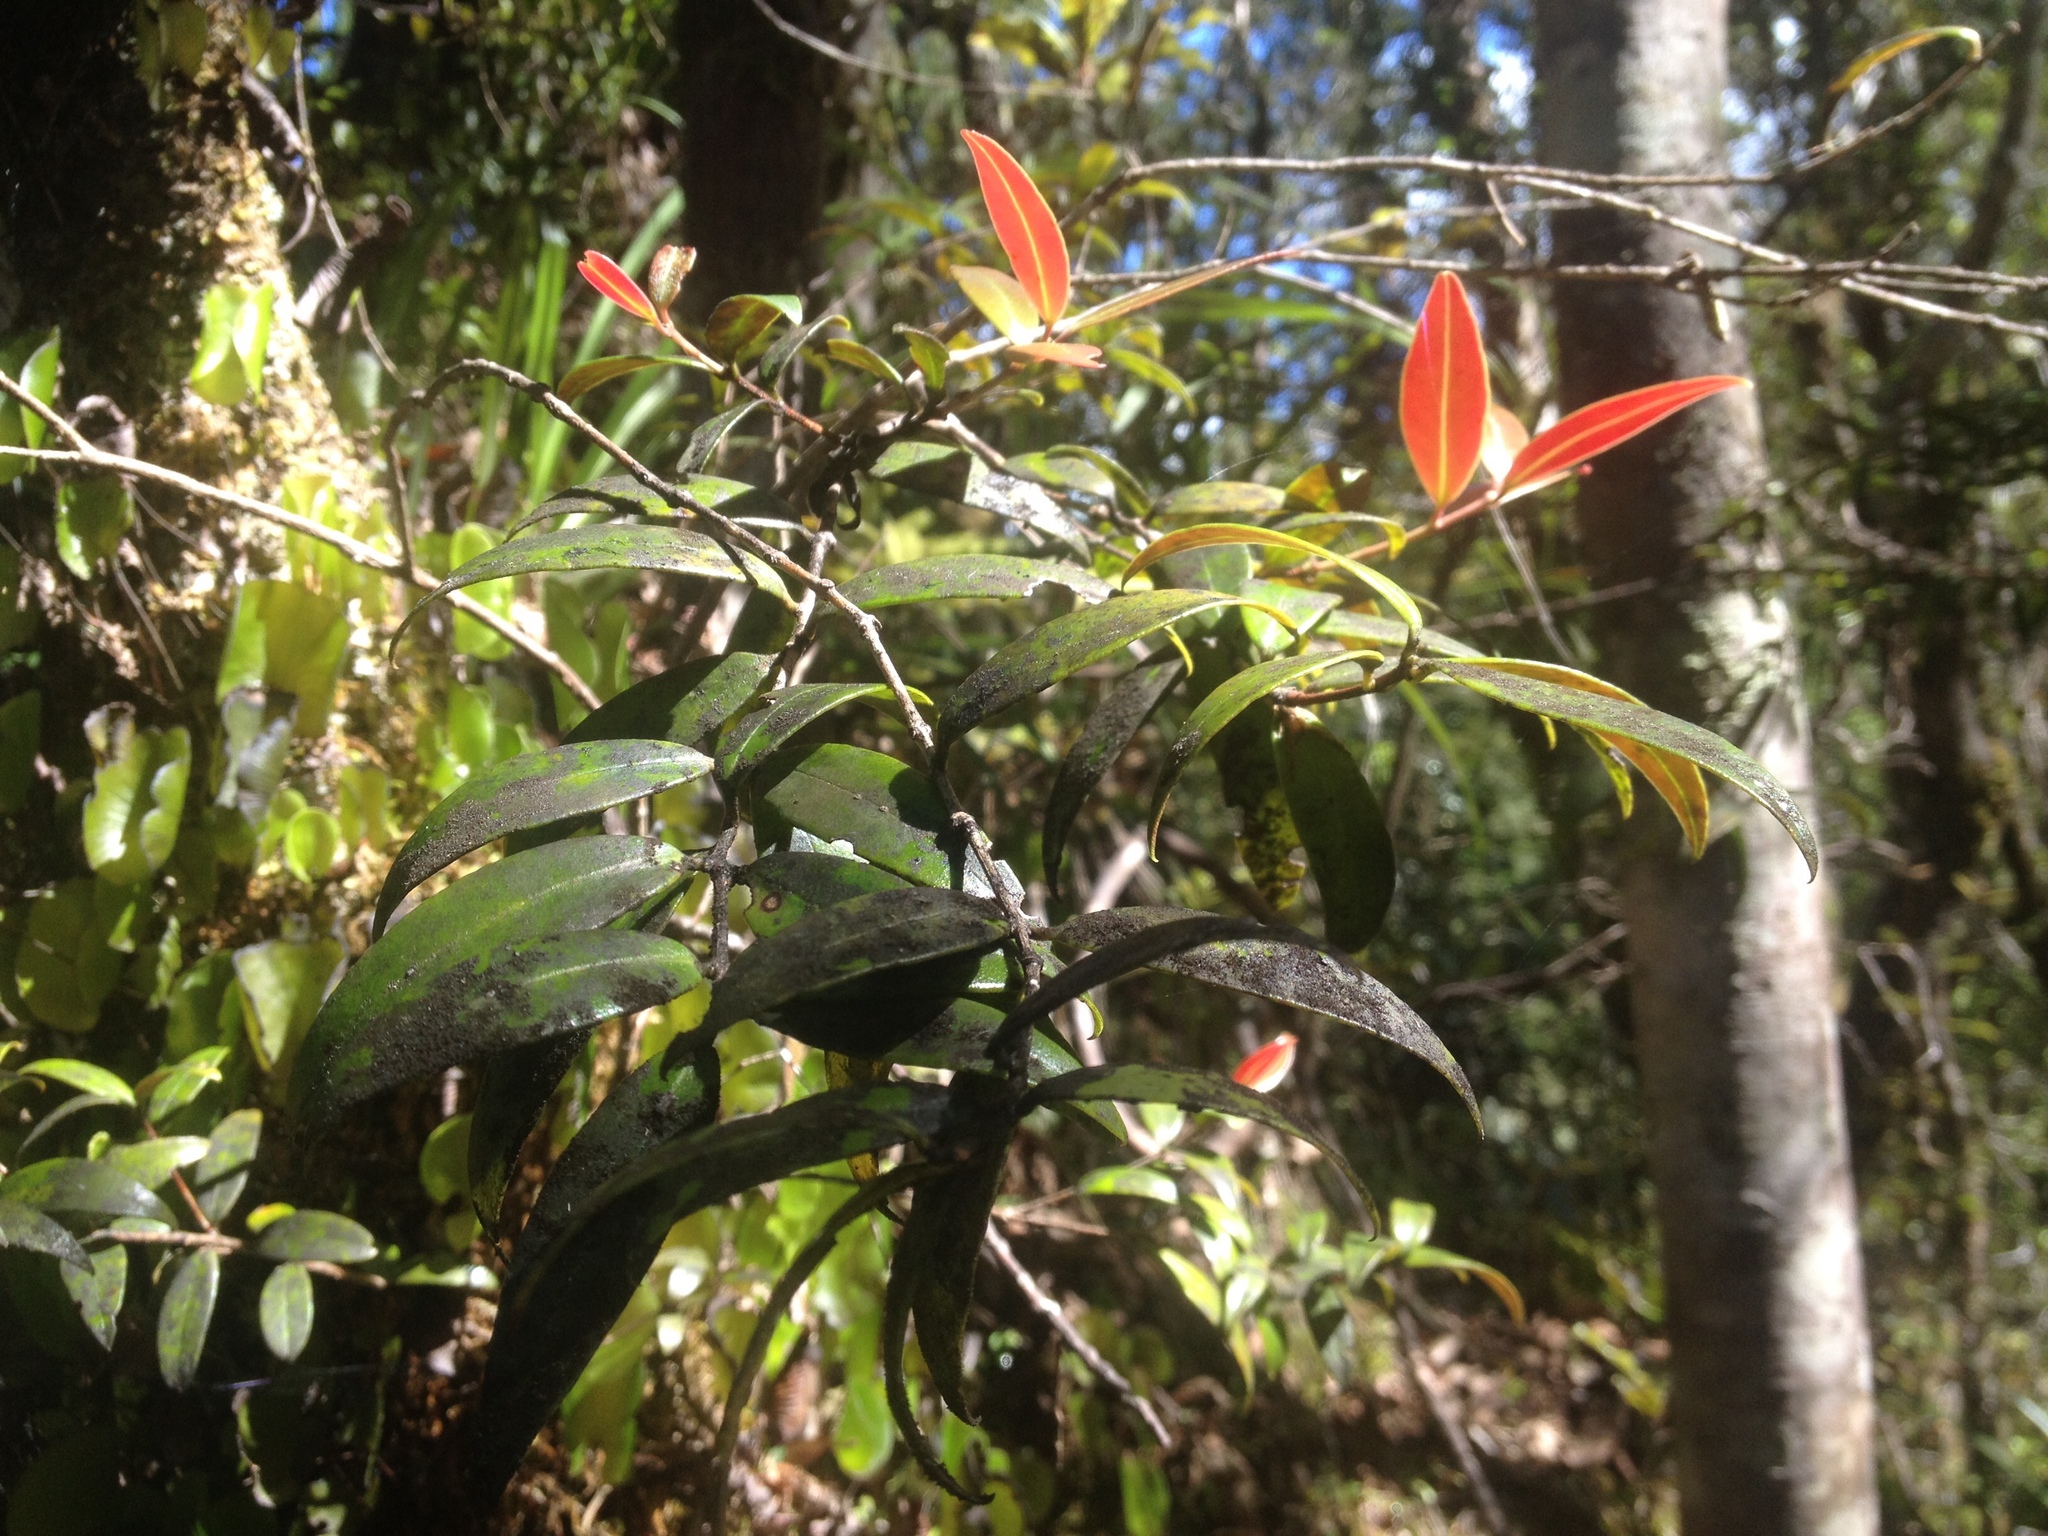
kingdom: Plantae
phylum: Tracheophyta
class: Magnoliopsida
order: Myrtales
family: Myrtaceae
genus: Metrosideros
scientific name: Metrosideros umbellata
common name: Southern rata
